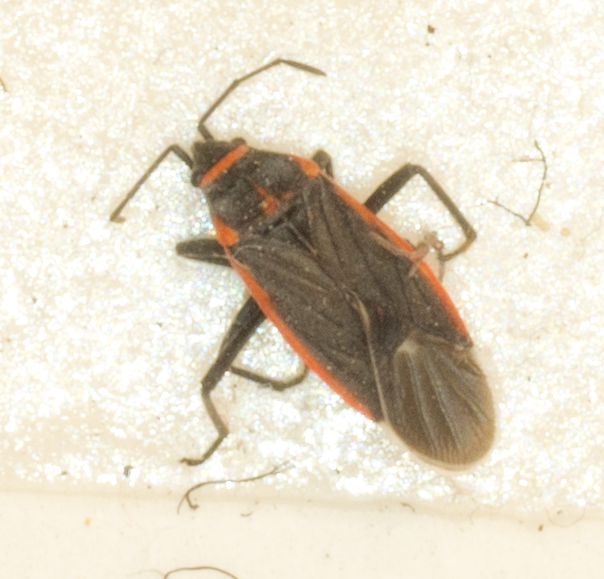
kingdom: Animalia
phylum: Arthropoda
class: Insecta
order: Hemiptera
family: Lygaeidae
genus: Melacoryphus
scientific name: Melacoryphus lateralis
